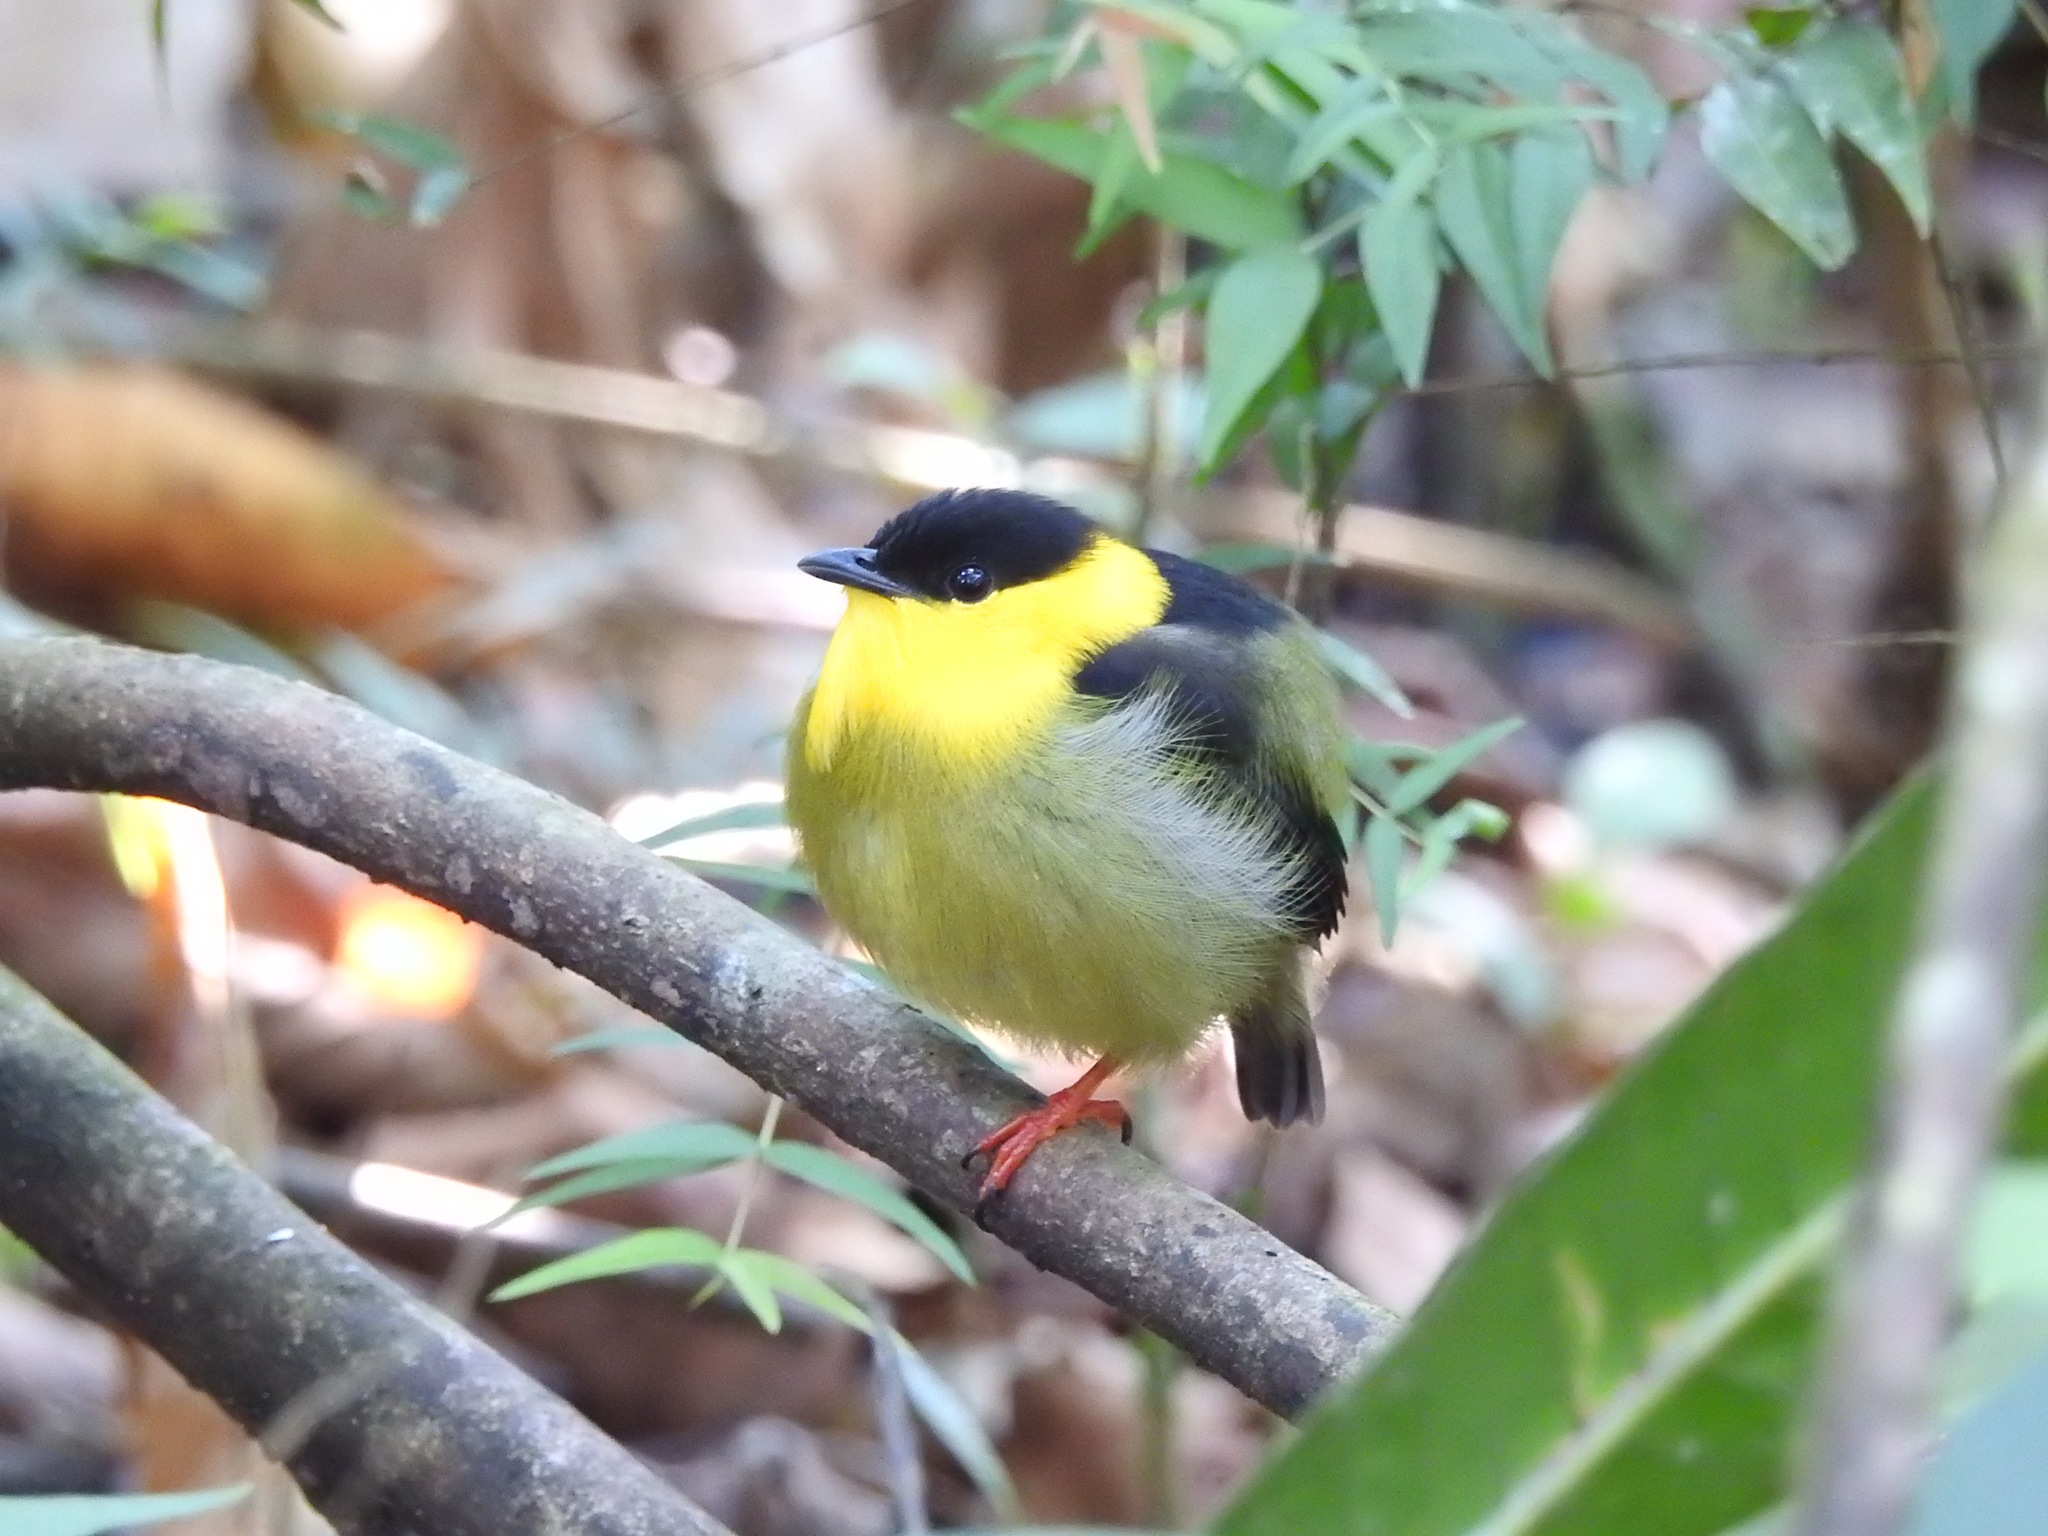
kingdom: Animalia
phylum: Chordata
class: Aves
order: Passeriformes
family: Pipridae
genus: Manacus
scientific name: Manacus vitellinus
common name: Golden-collared manakin
